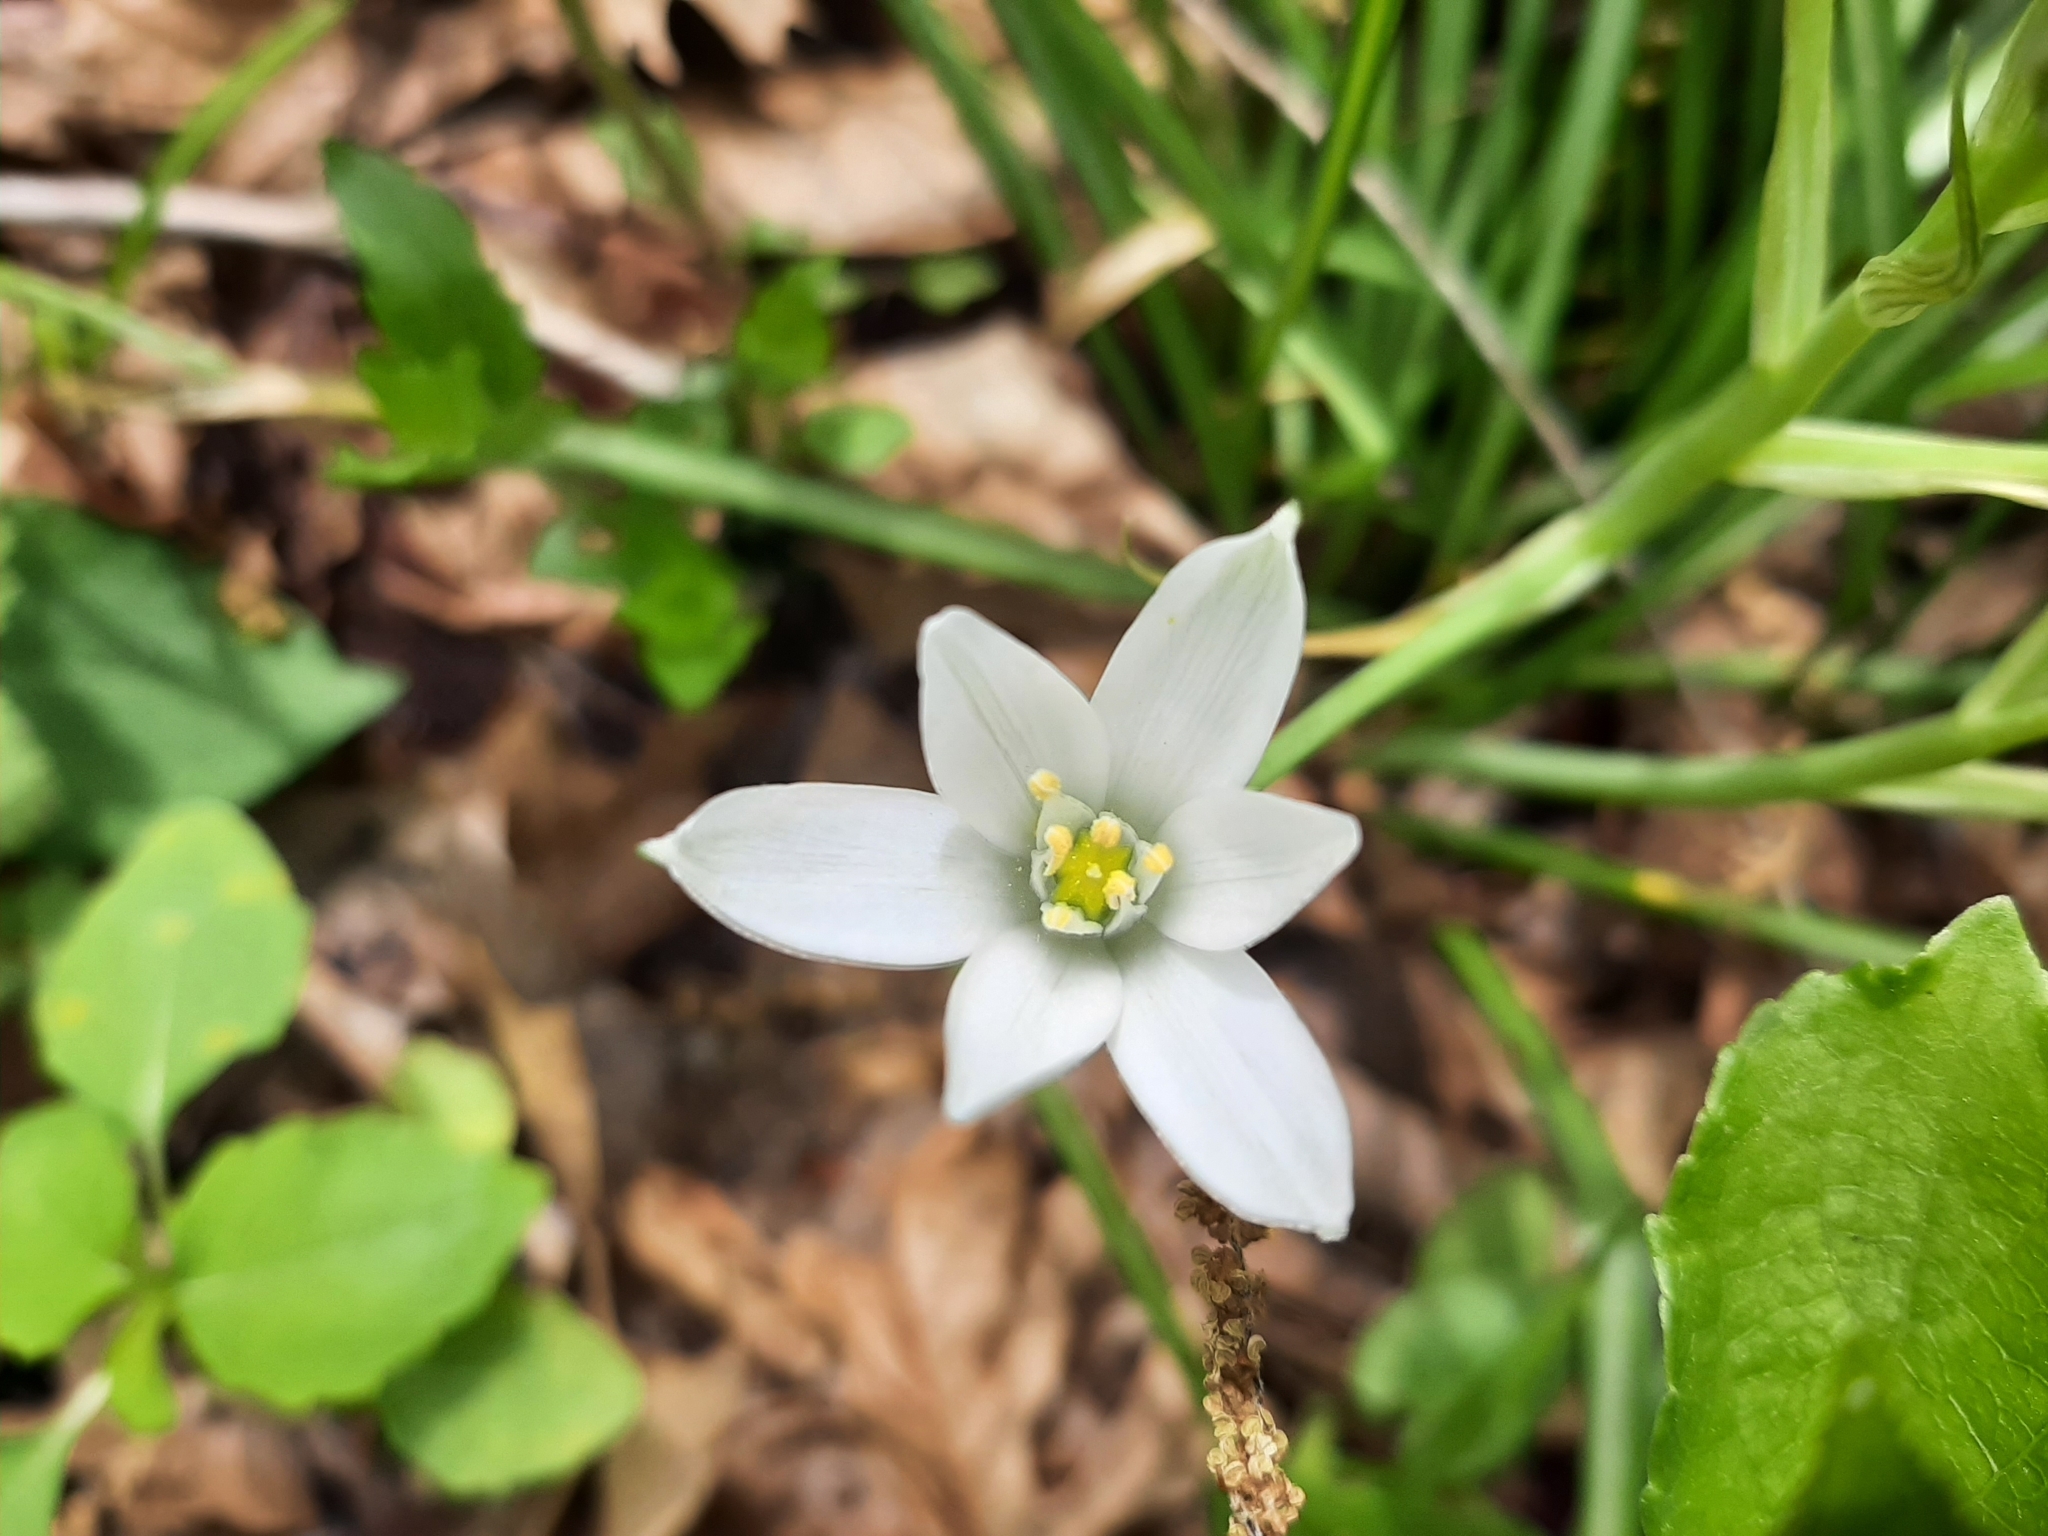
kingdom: Plantae
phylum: Tracheophyta
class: Liliopsida
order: Asparagales
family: Asparagaceae
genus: Ornithogalum
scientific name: Ornithogalum umbellatum
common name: Garden star-of-bethlehem
